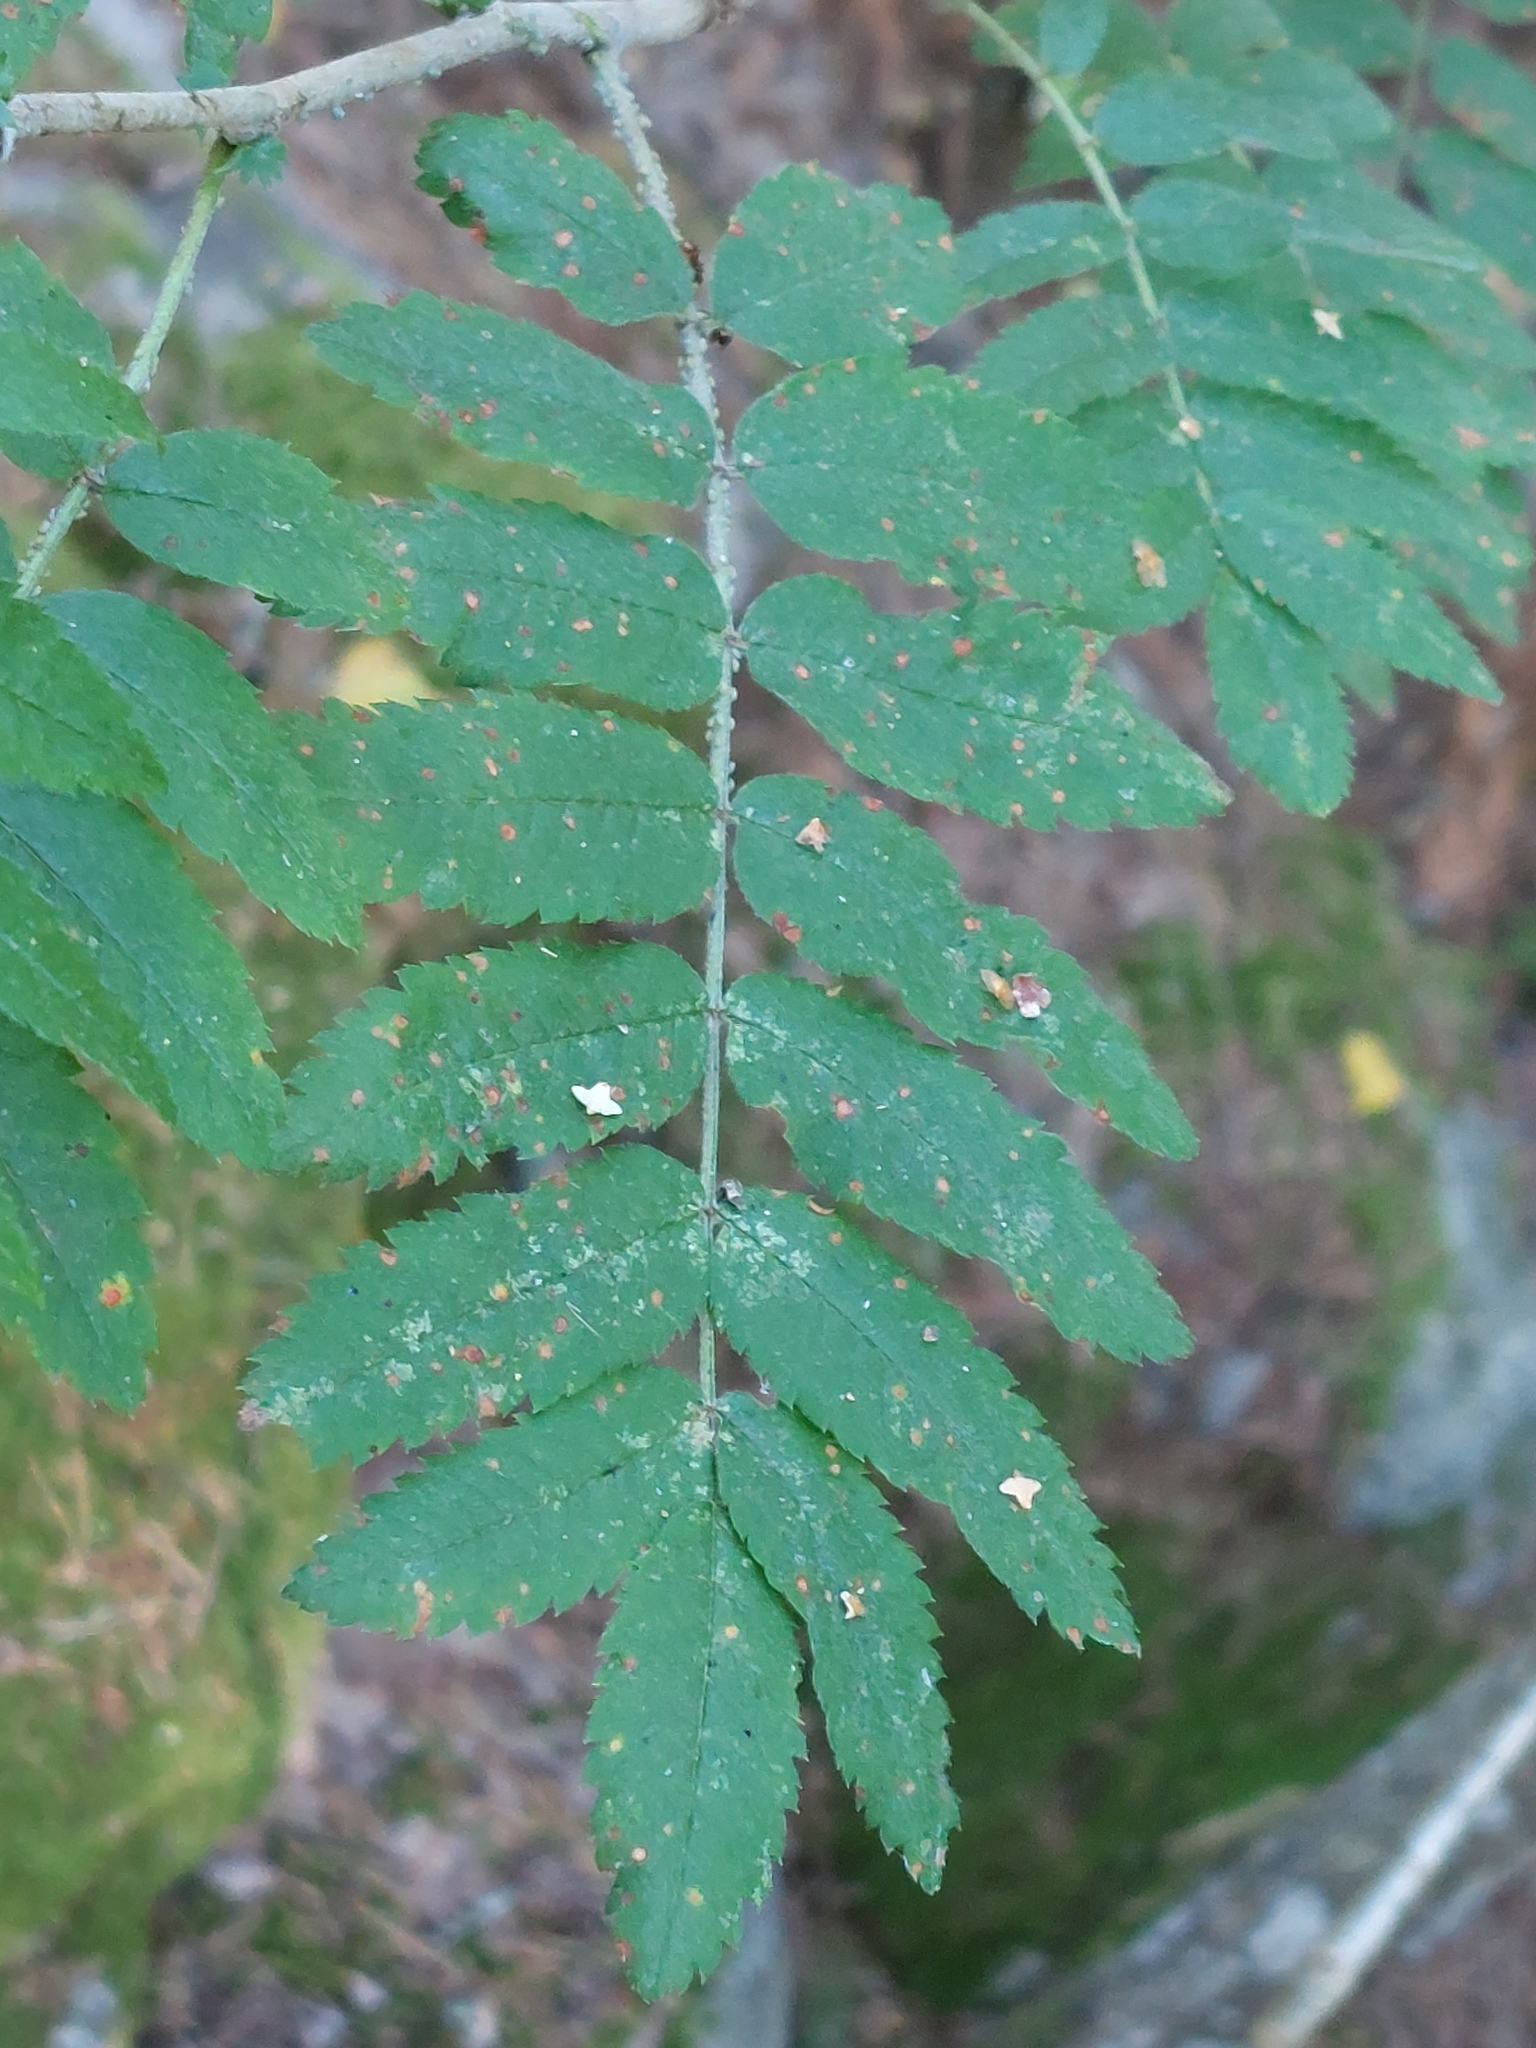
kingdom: Plantae
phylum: Tracheophyta
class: Magnoliopsida
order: Rosales
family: Rosaceae
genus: Sorbus
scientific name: Sorbus aucuparia
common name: Rowan
